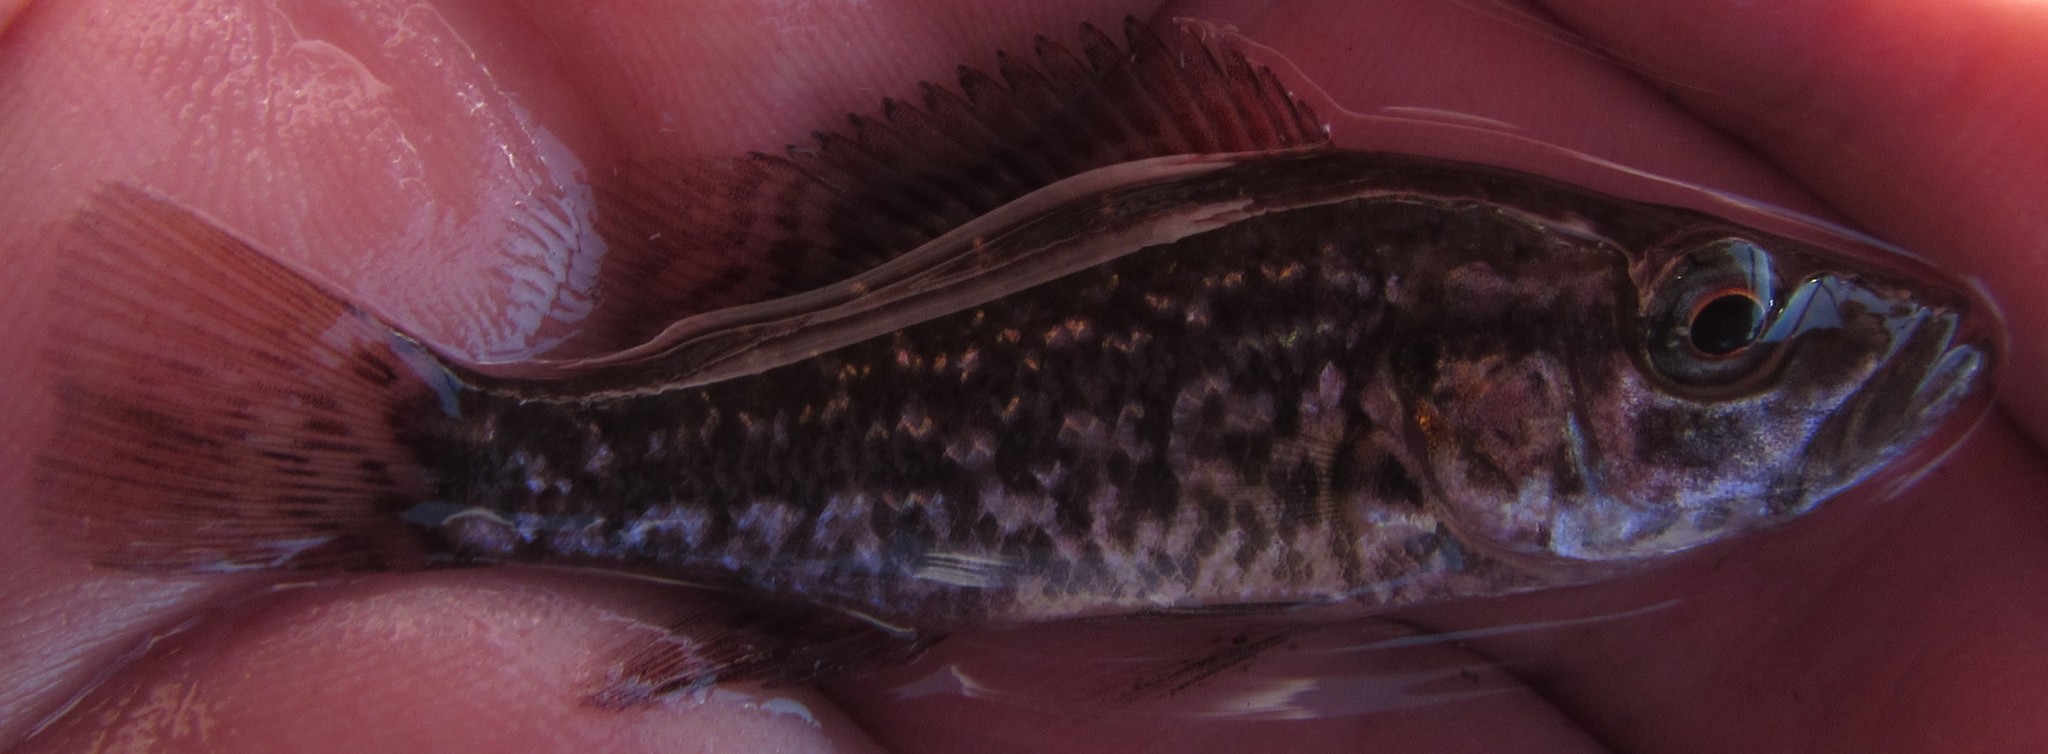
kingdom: Animalia
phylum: Chordata
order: Perciformes
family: Cichlidae
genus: Serranochromis
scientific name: Serranochromis angusticeps
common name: Thinface largemouth
